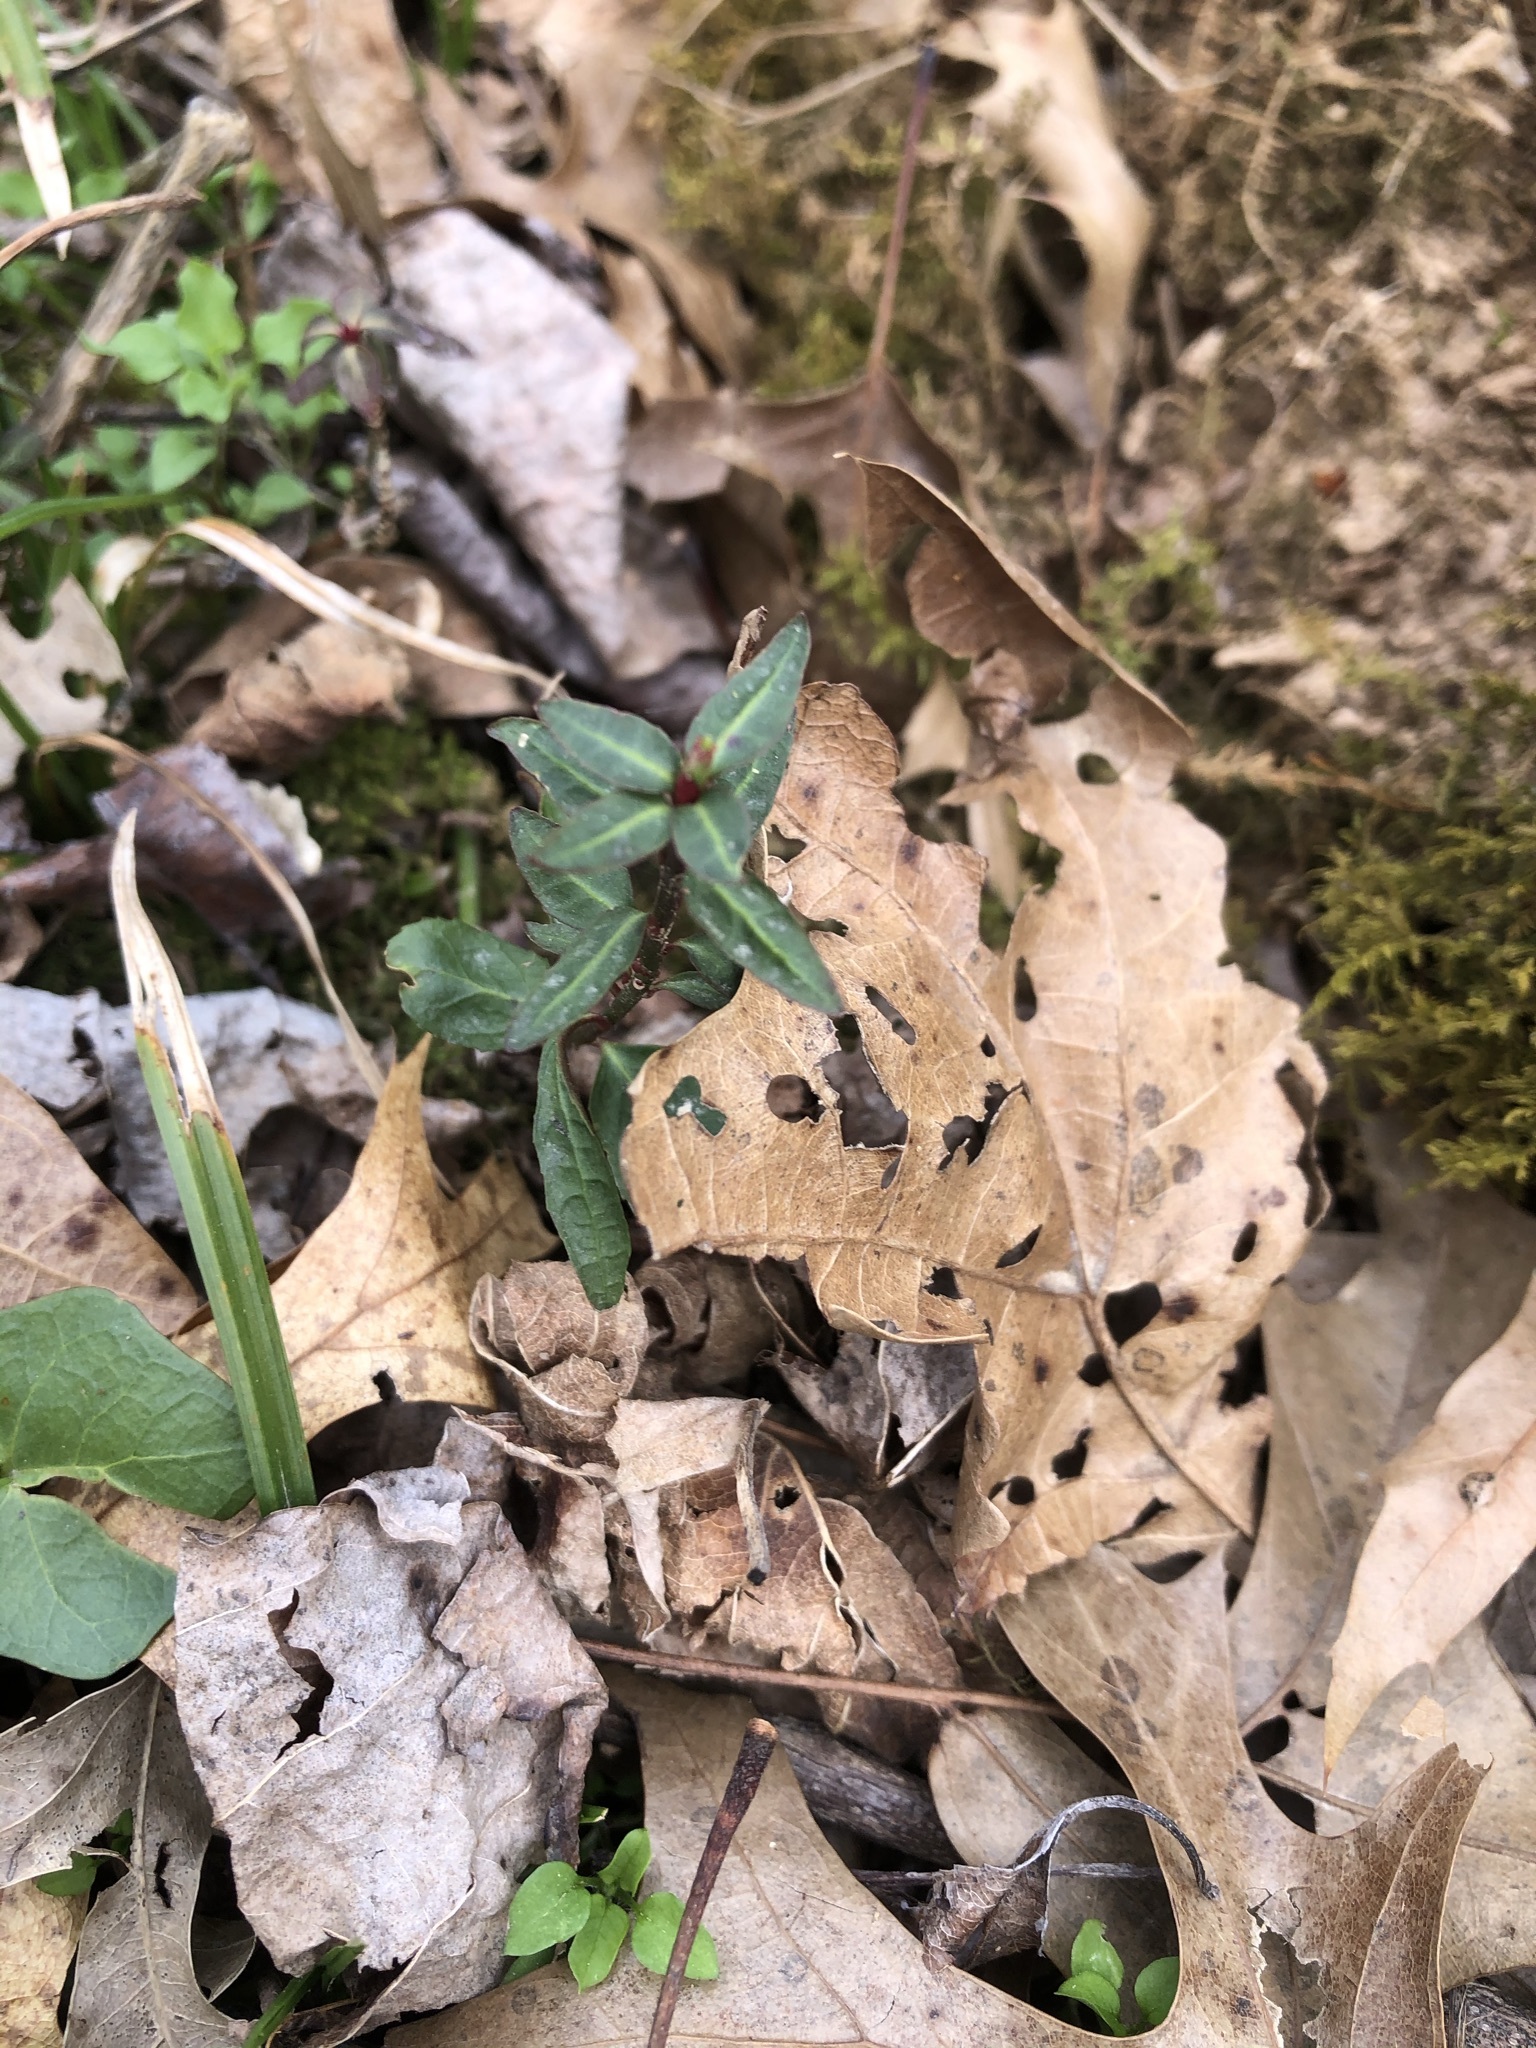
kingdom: Plantae
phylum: Tracheophyta
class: Magnoliopsida
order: Ericales
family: Ericaceae
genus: Chimaphila
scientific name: Chimaphila maculata
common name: Spotted pipsissewa
